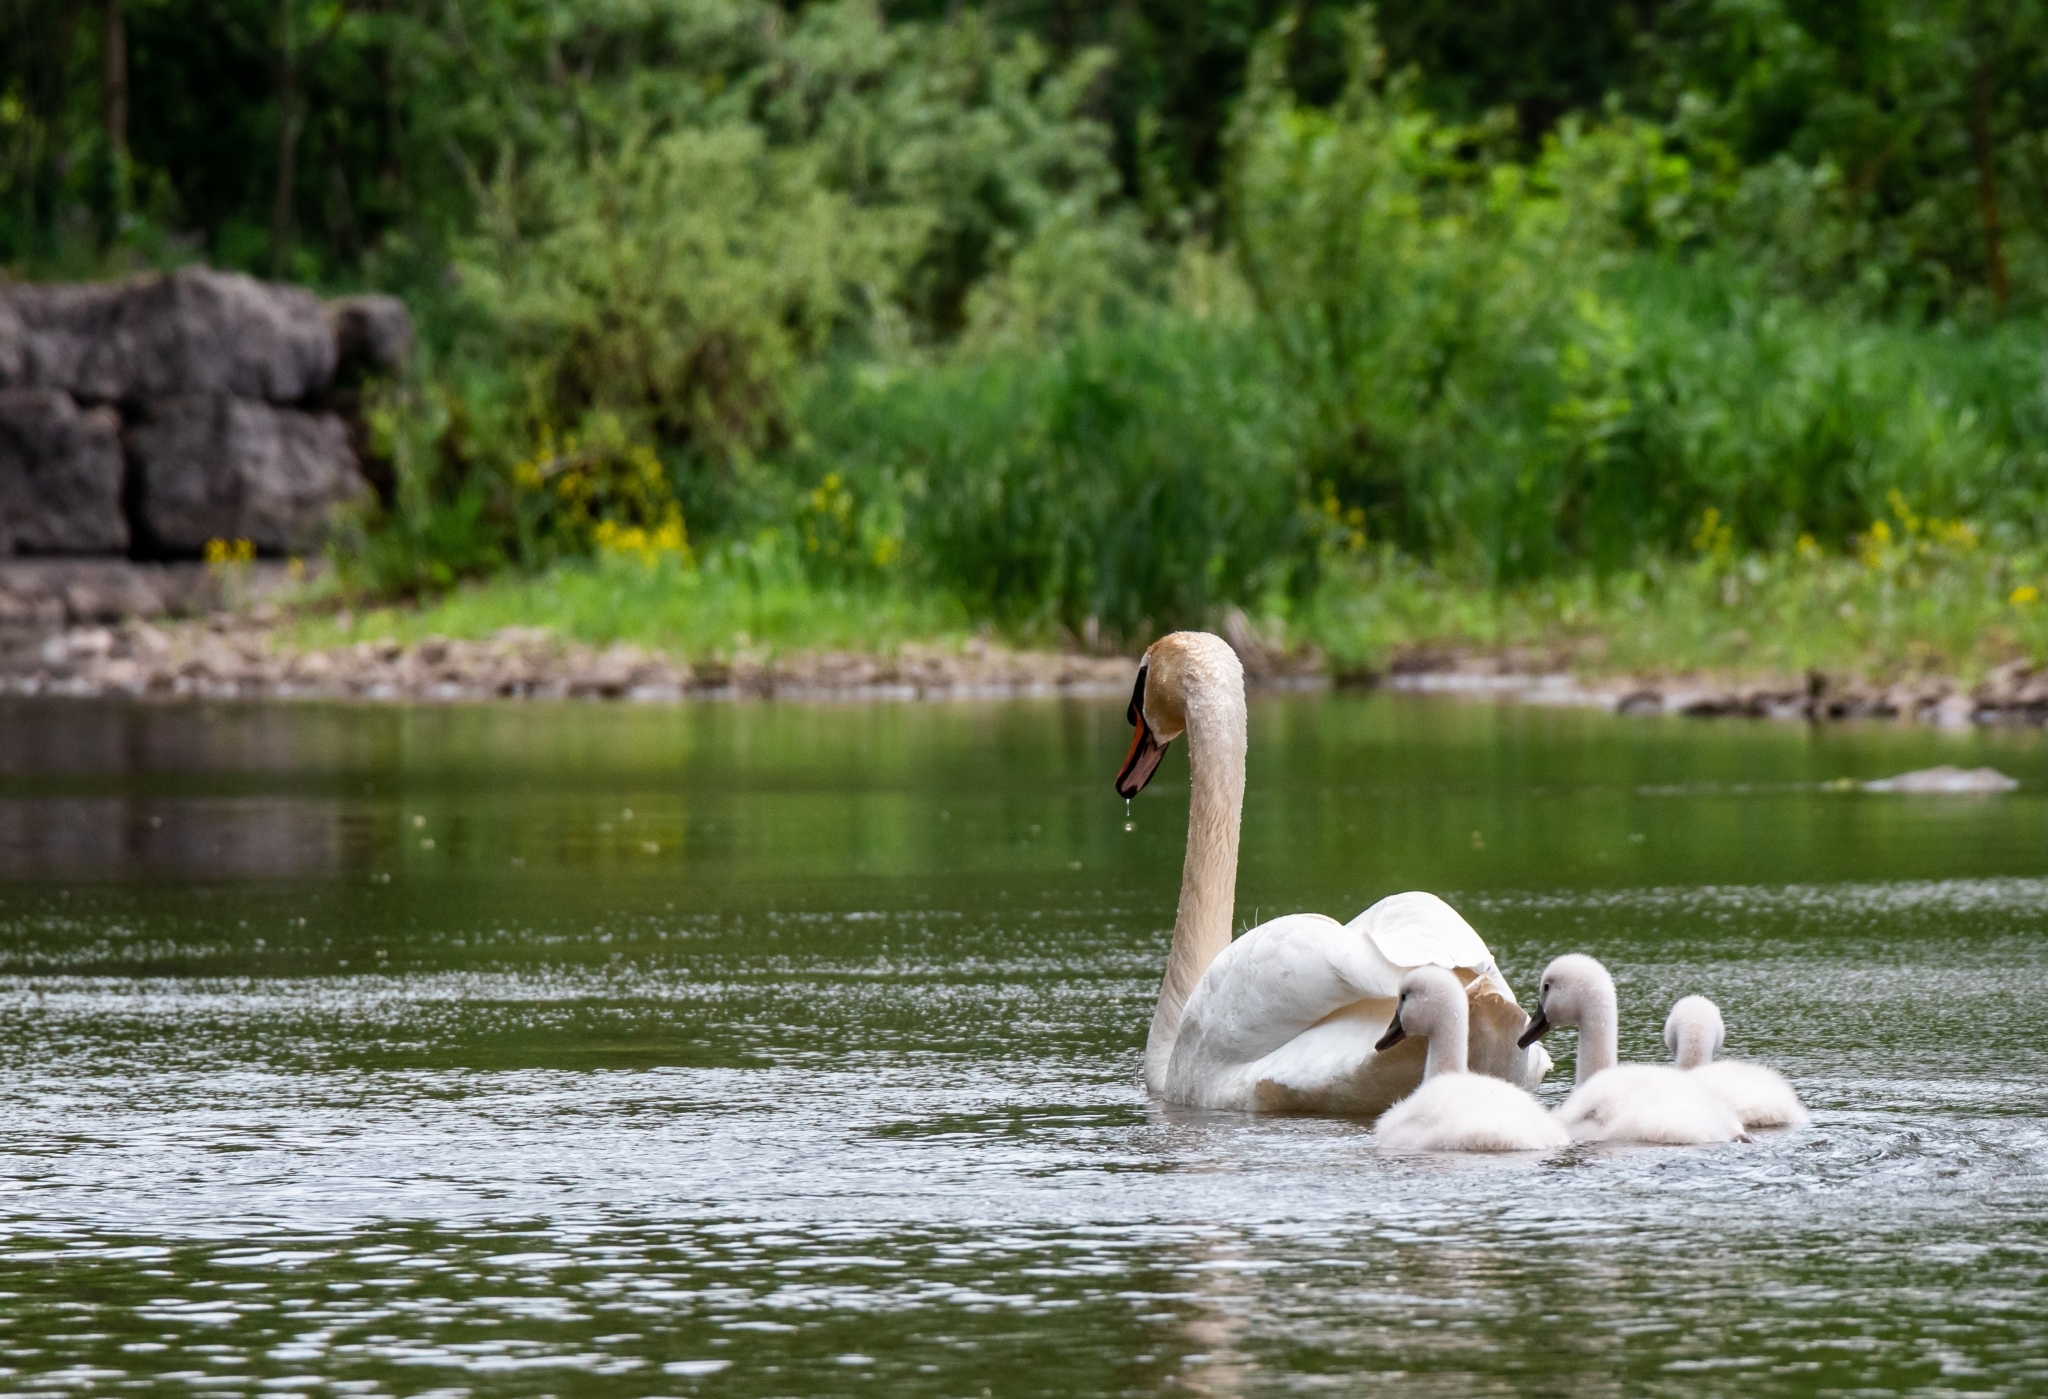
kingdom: Animalia
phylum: Chordata
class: Aves
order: Anseriformes
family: Anatidae
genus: Cygnus
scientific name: Cygnus olor
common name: Mute swan
